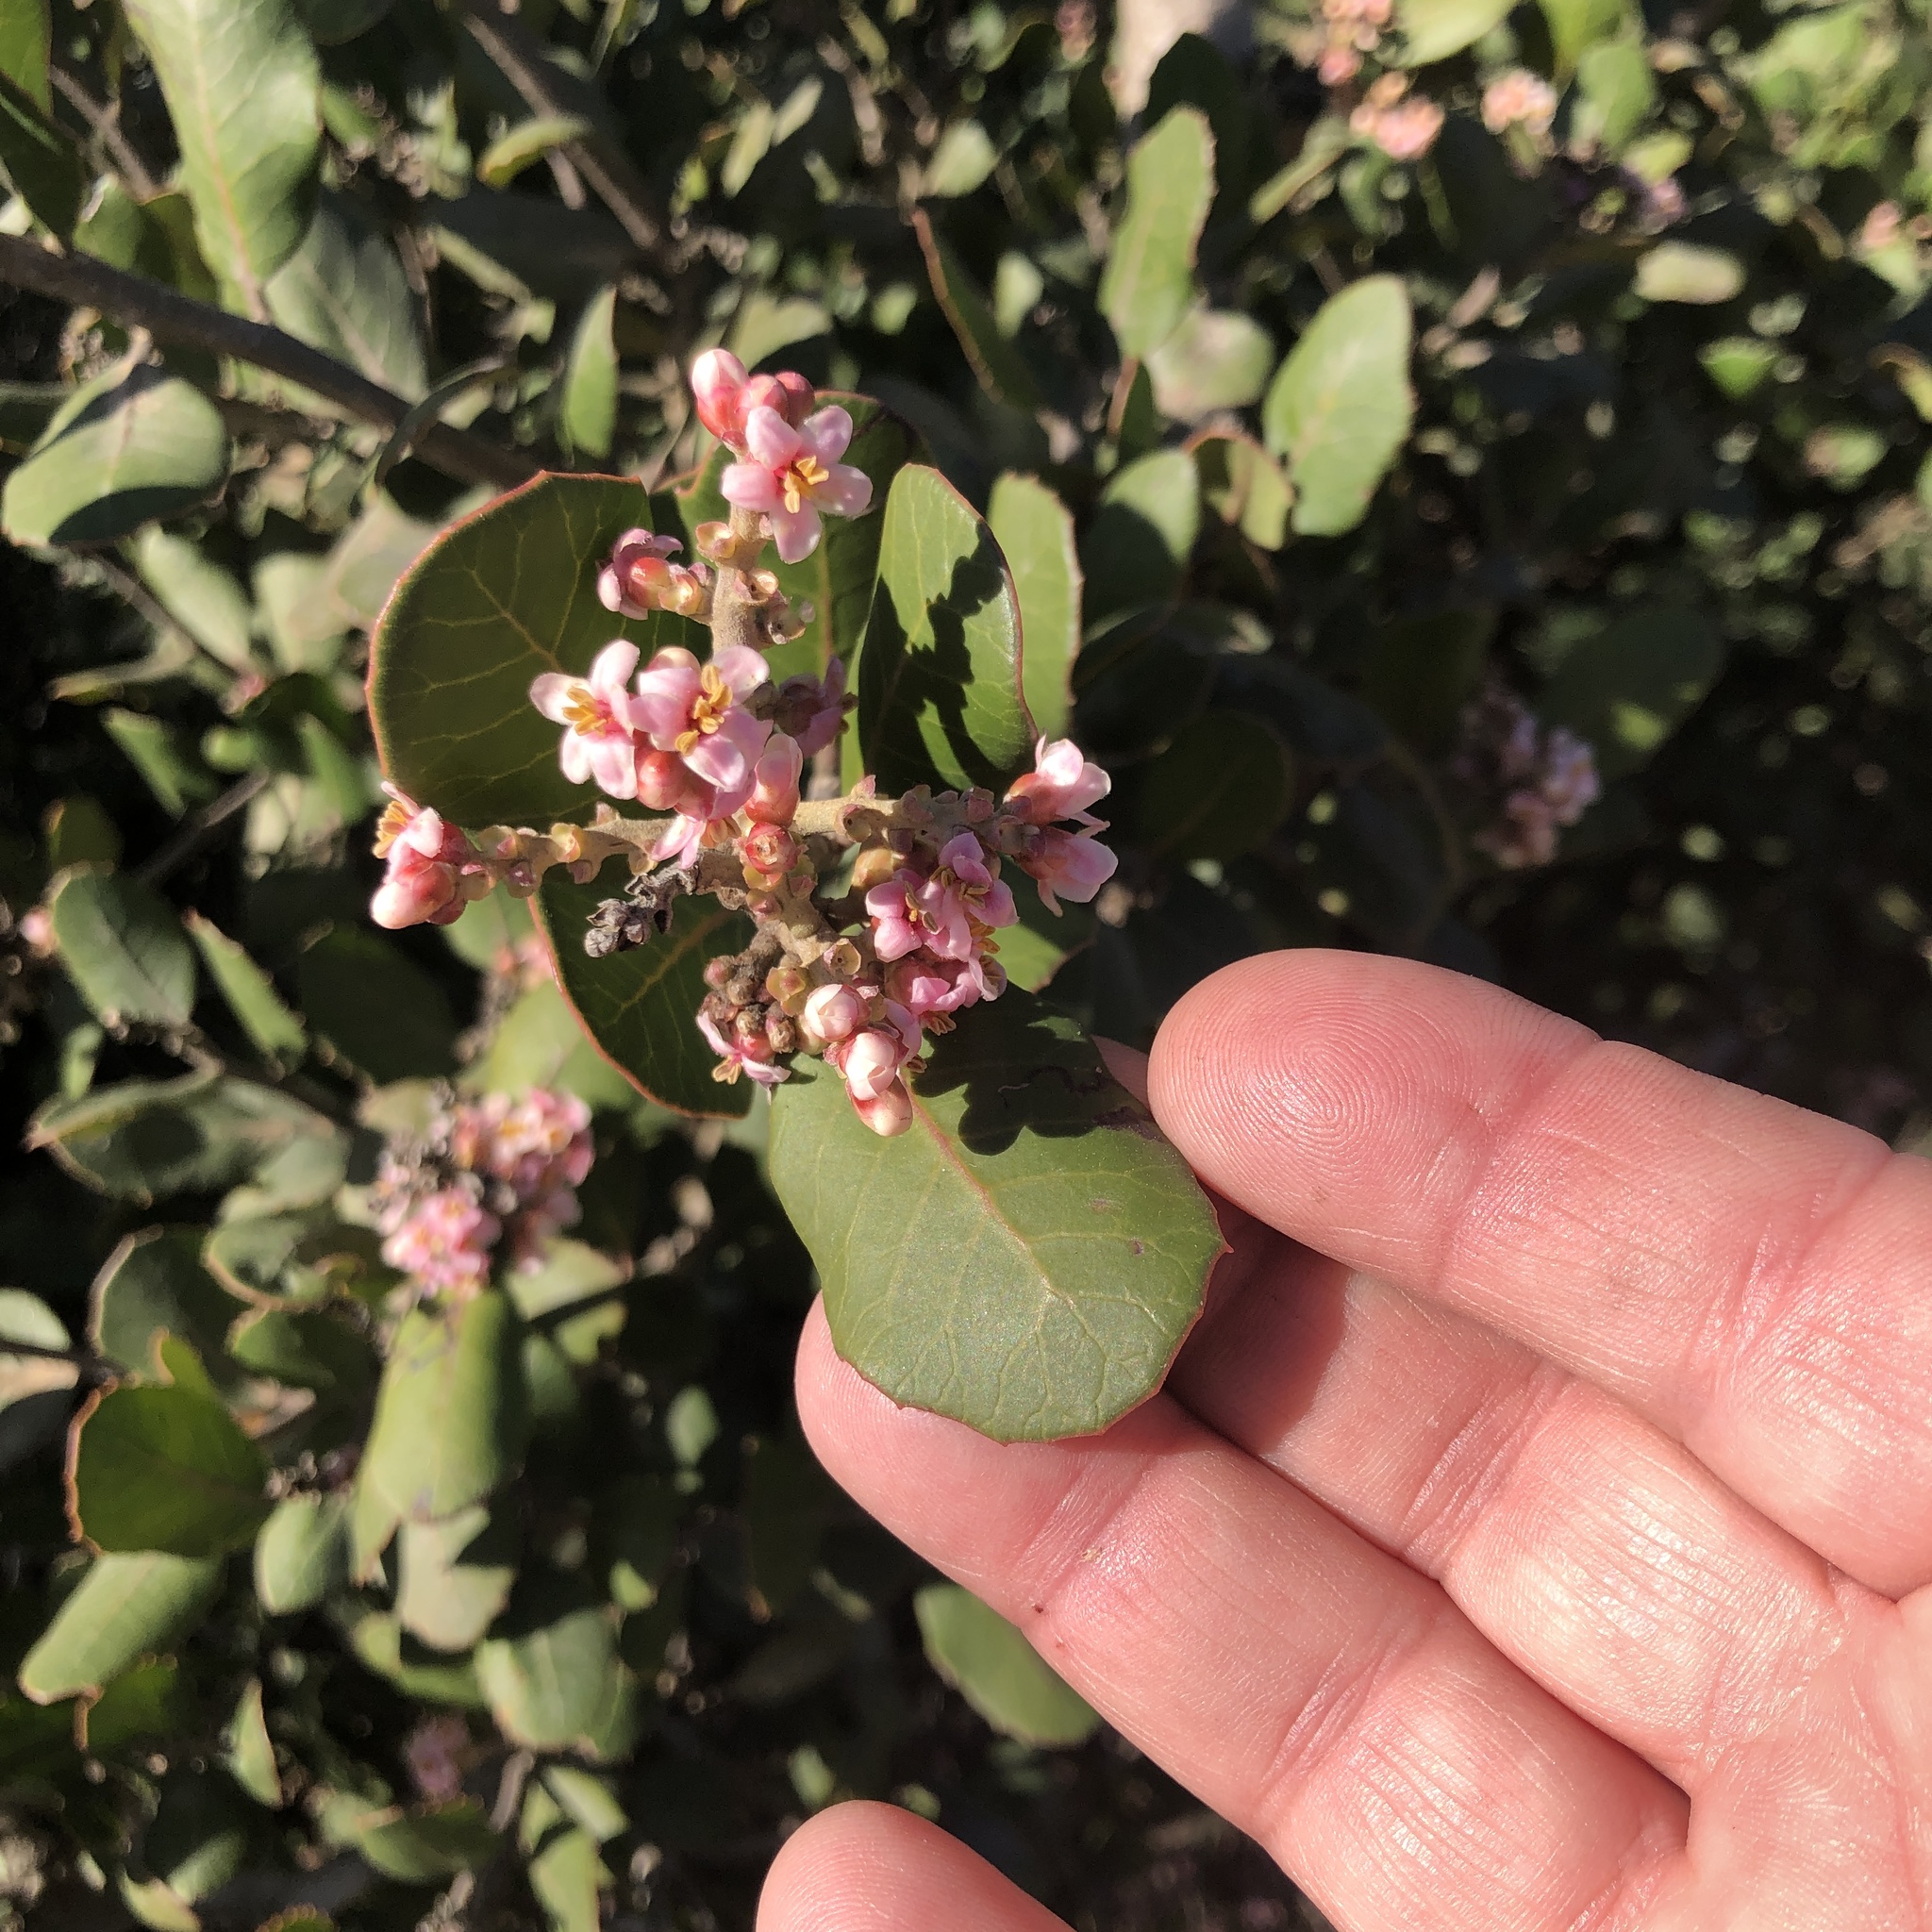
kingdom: Plantae
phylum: Tracheophyta
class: Magnoliopsida
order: Sapindales
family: Anacardiaceae
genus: Rhus
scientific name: Rhus integrifolia
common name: Lemonade sumac
